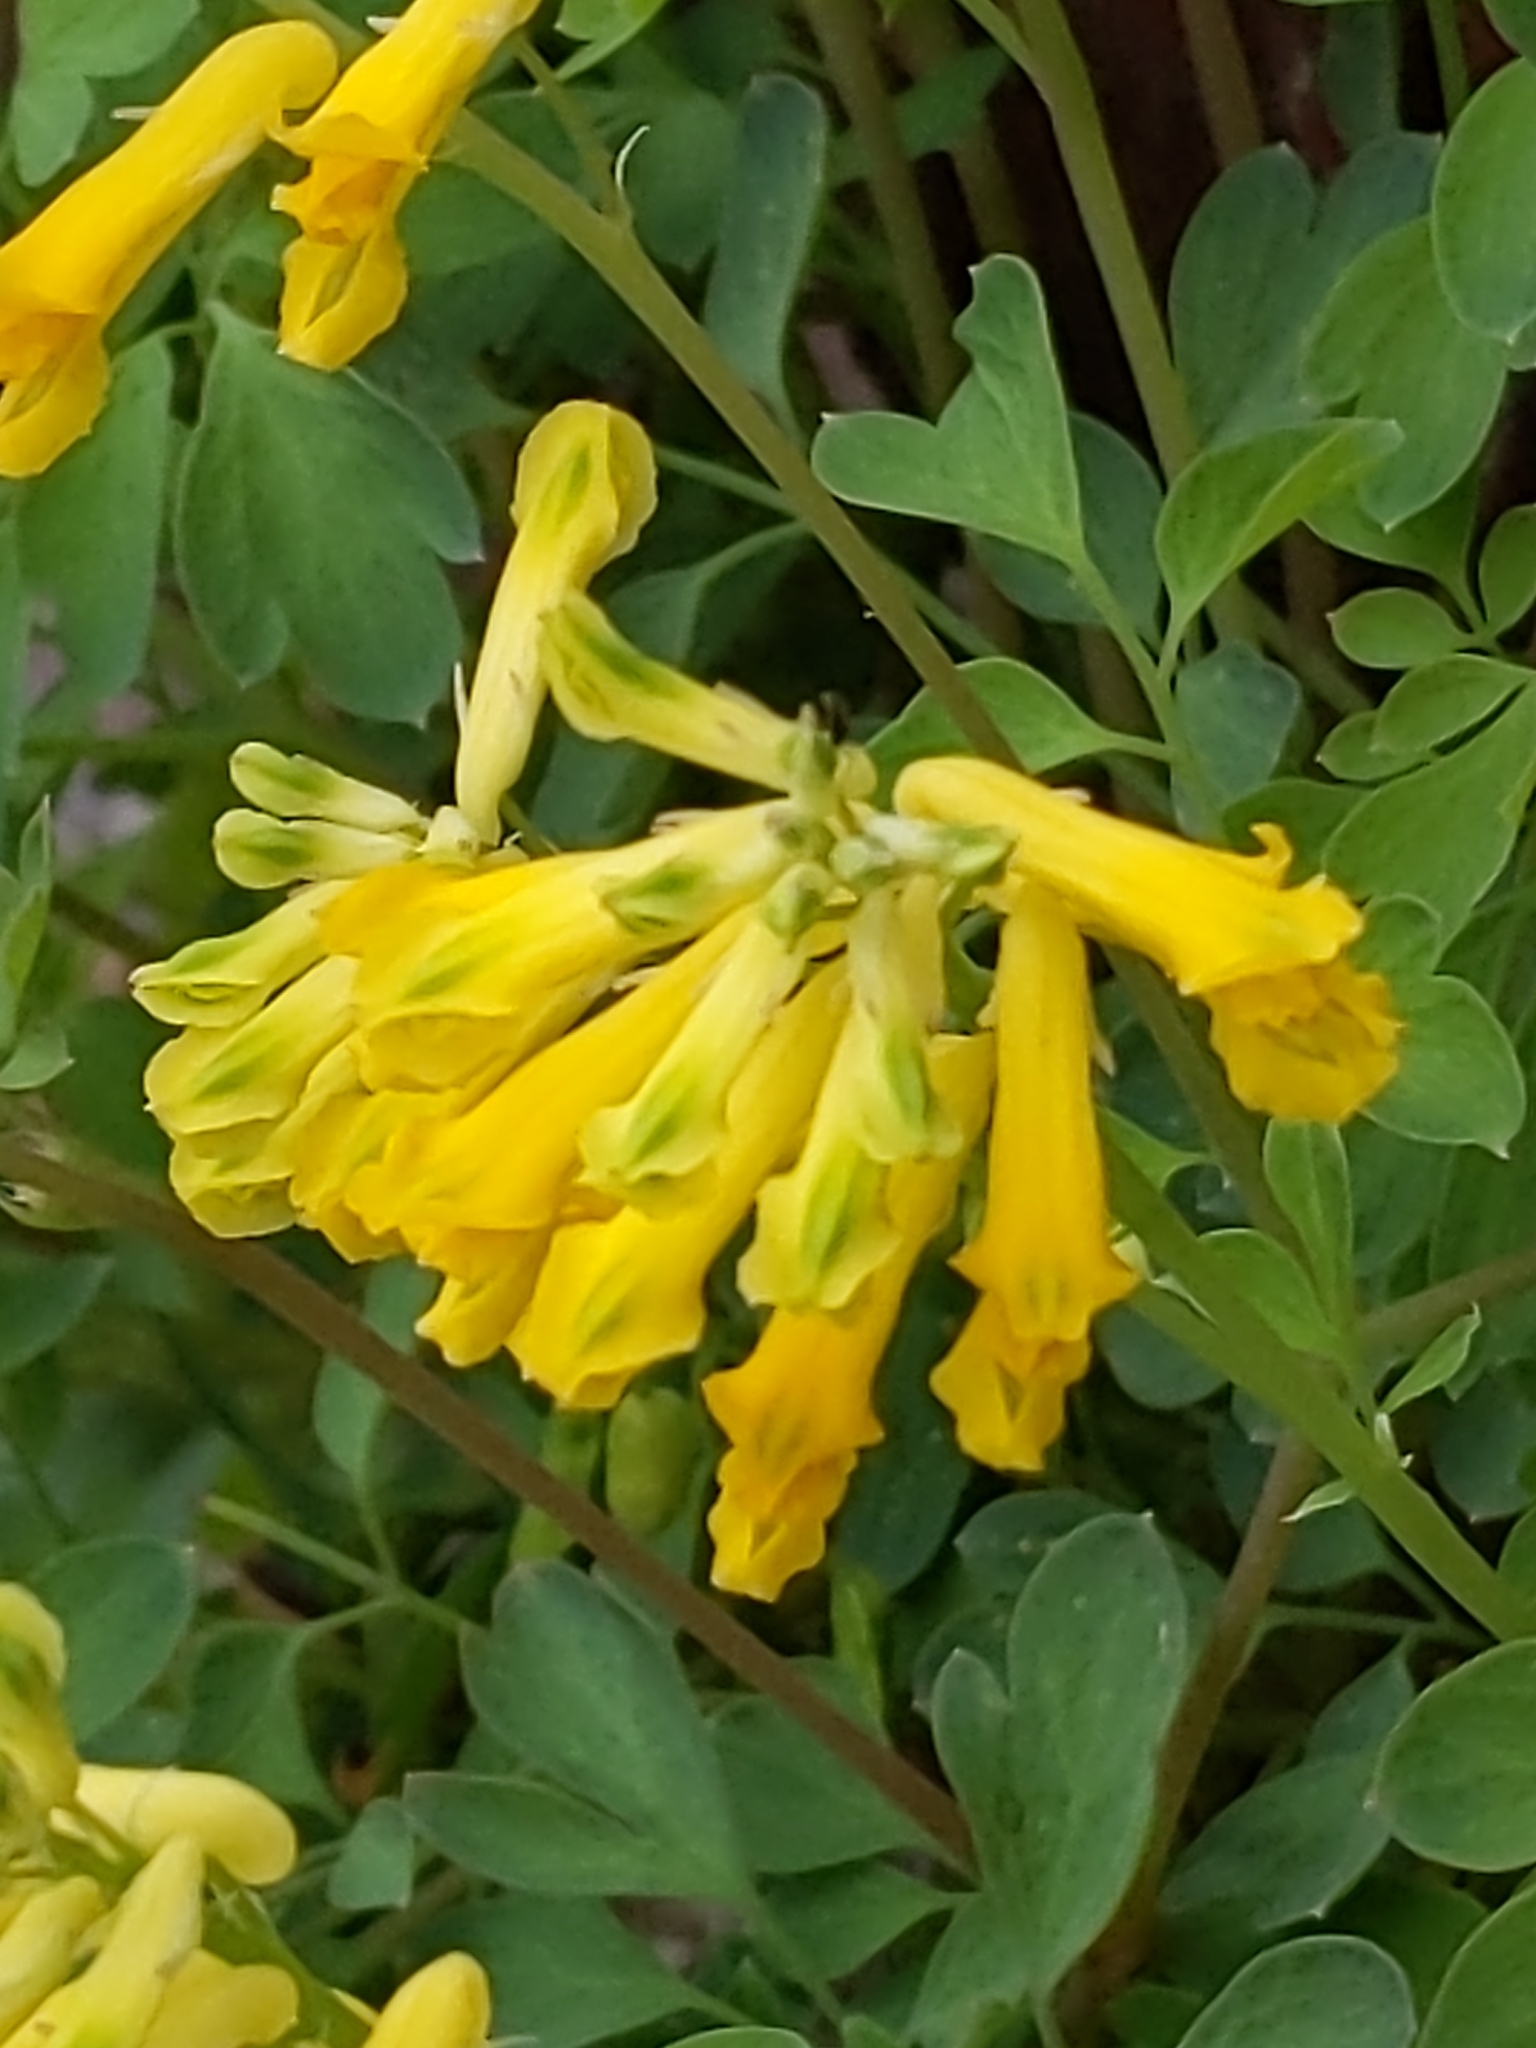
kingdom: Plantae
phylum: Tracheophyta
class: Magnoliopsida
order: Ranunculales
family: Papaveraceae
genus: Pseudofumaria
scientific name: Pseudofumaria lutea
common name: Yellow corydalis
